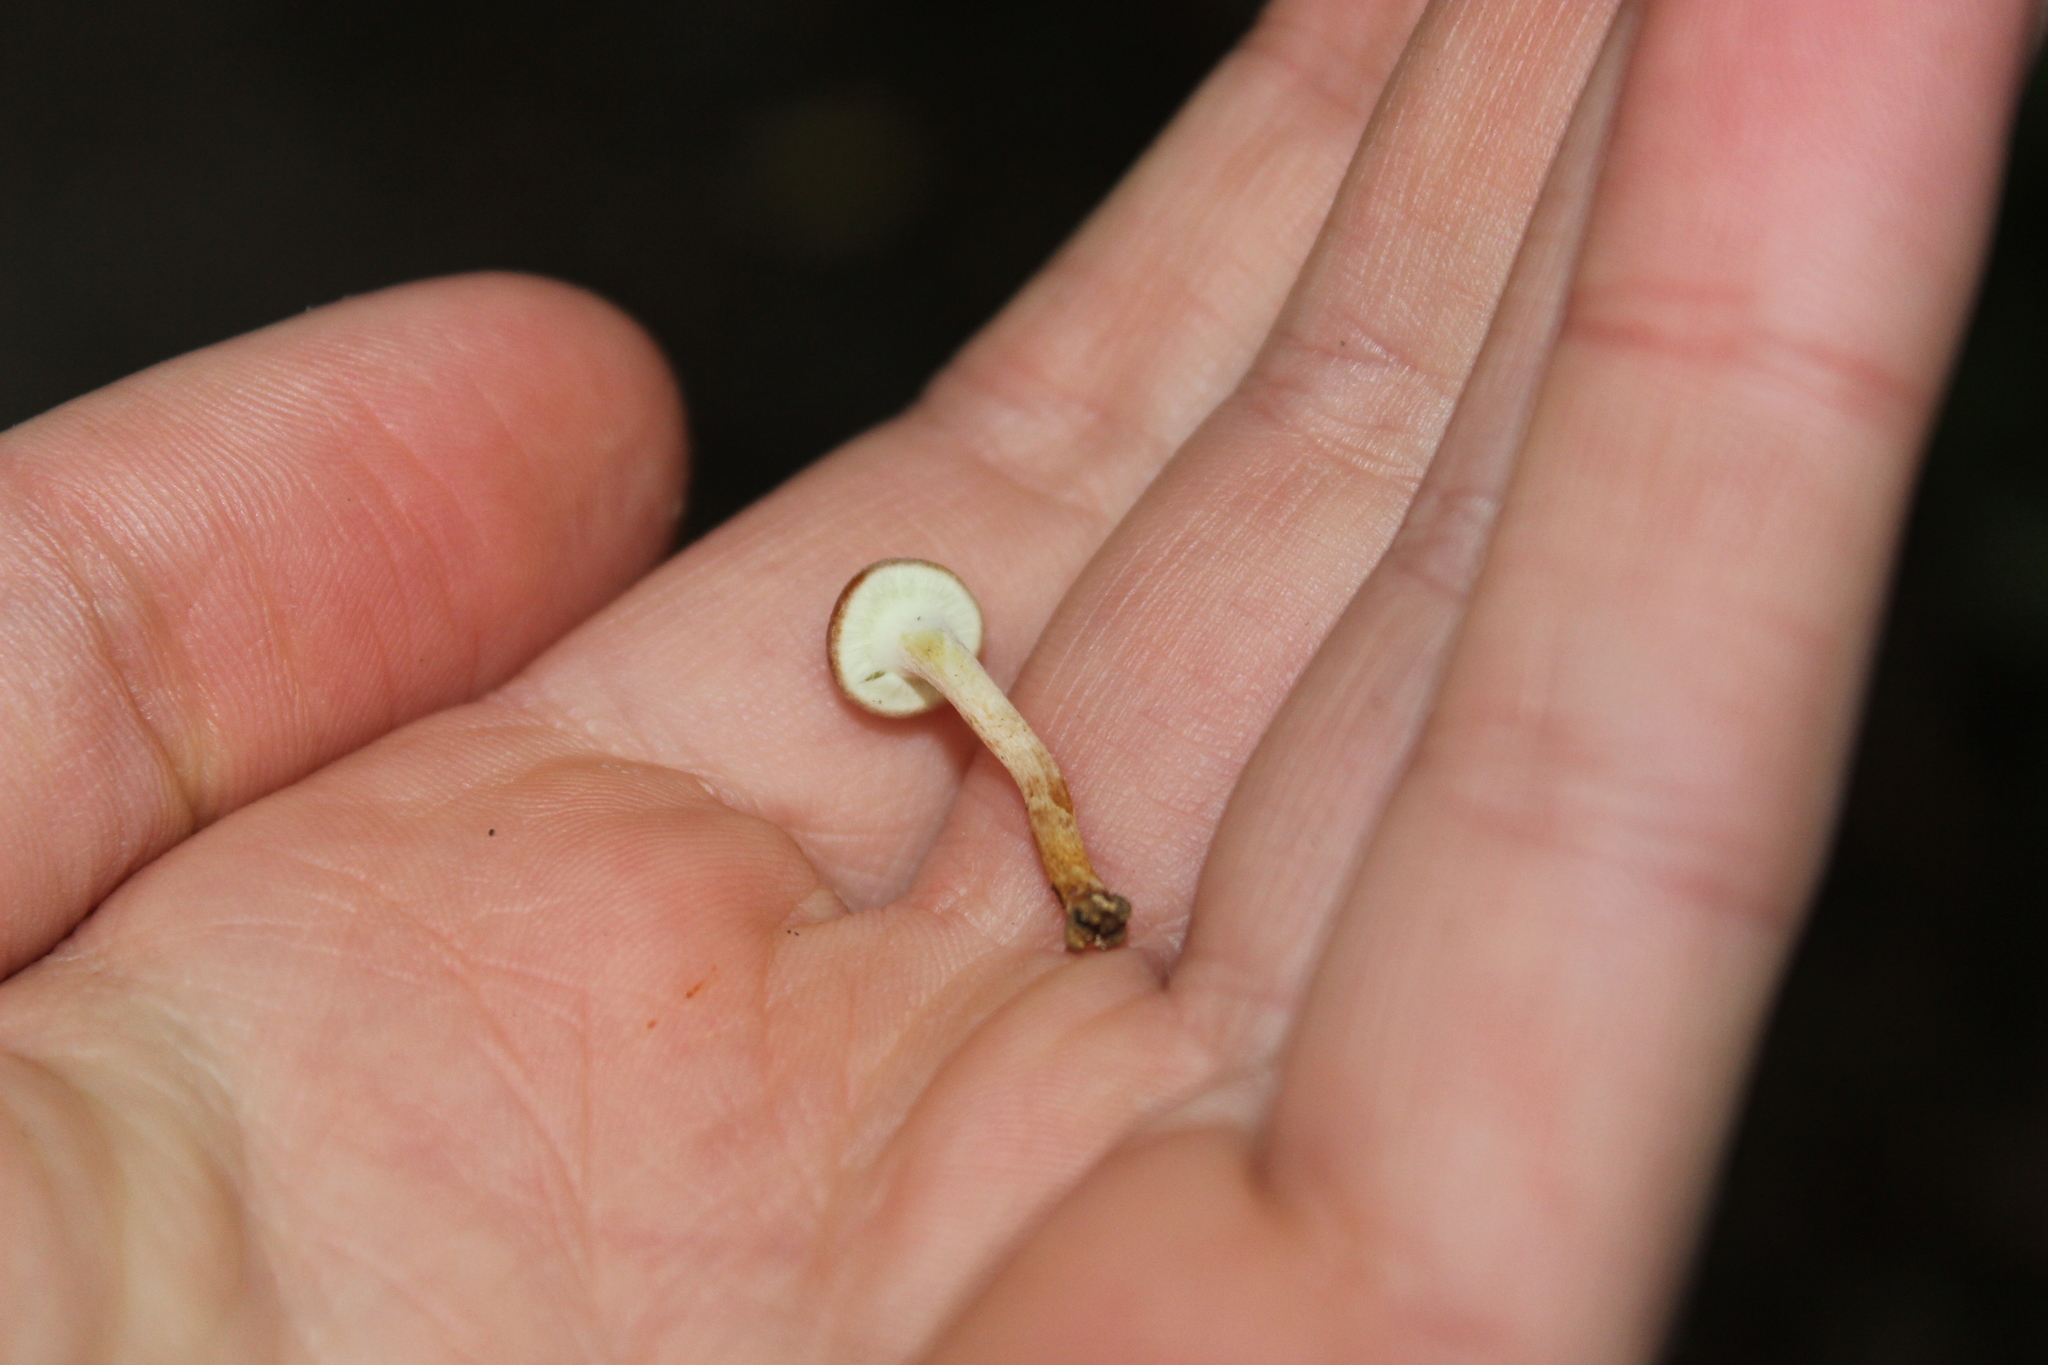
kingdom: Fungi
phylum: Basidiomycota
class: Agaricomycetes
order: Agaricales
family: Strophariaceae
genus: Hypholoma
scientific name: Hypholoma acutum
